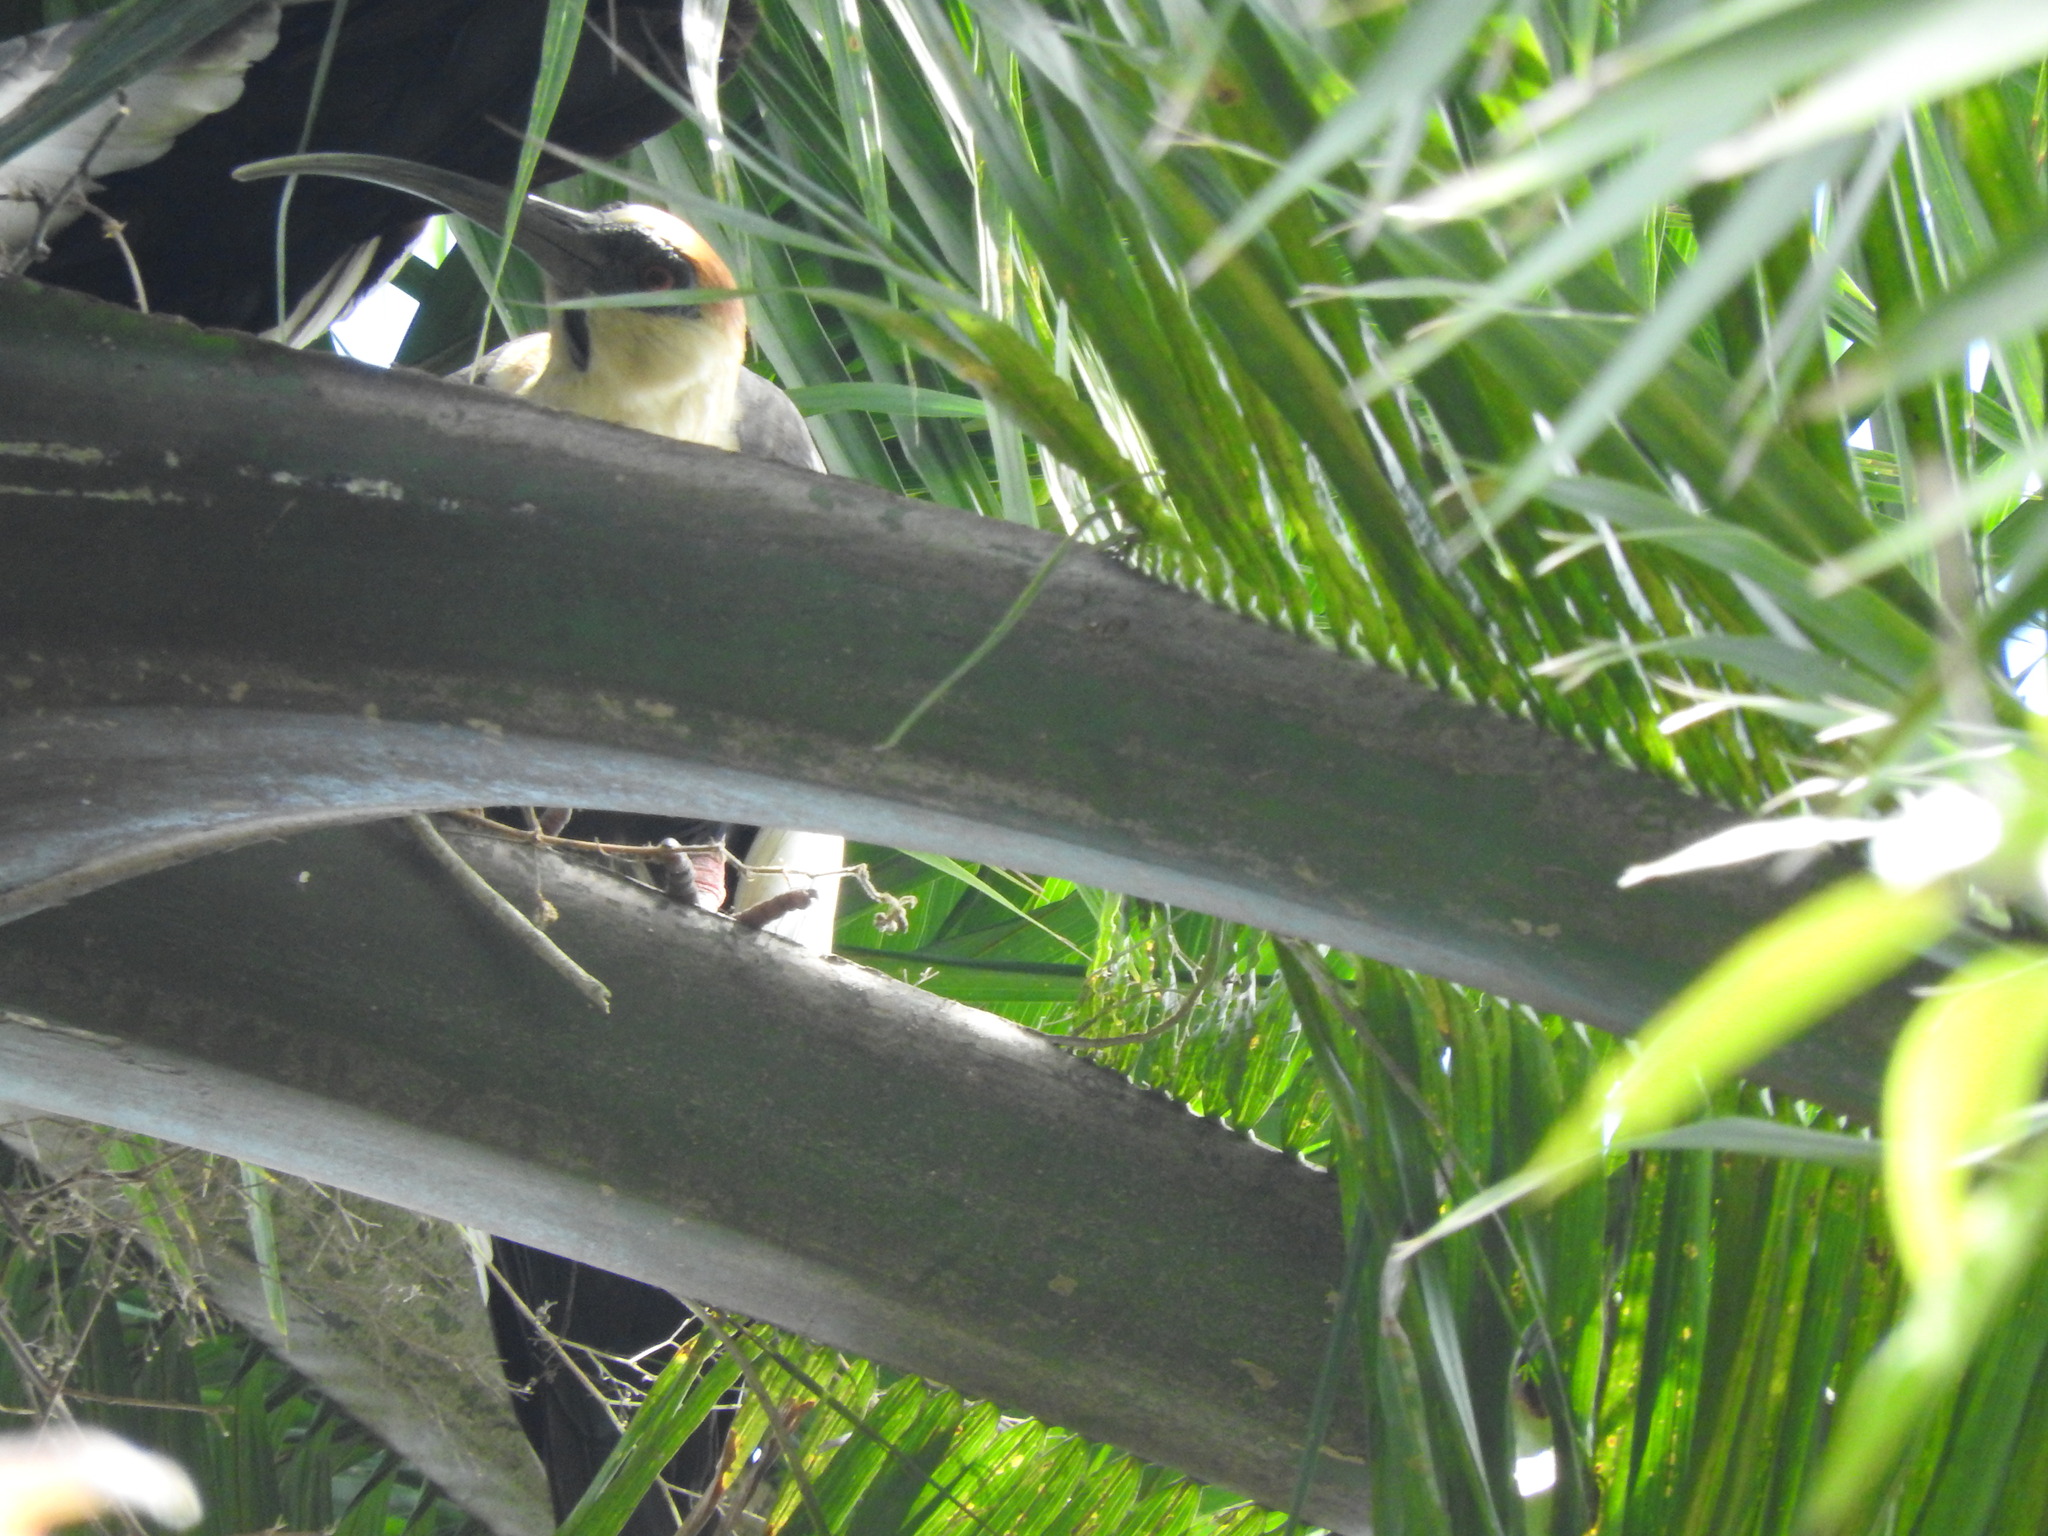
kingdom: Animalia
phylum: Chordata
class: Aves
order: Pelecaniformes
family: Threskiornithidae
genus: Theristicus
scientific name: Theristicus caudatus
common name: Buff-necked ibis
